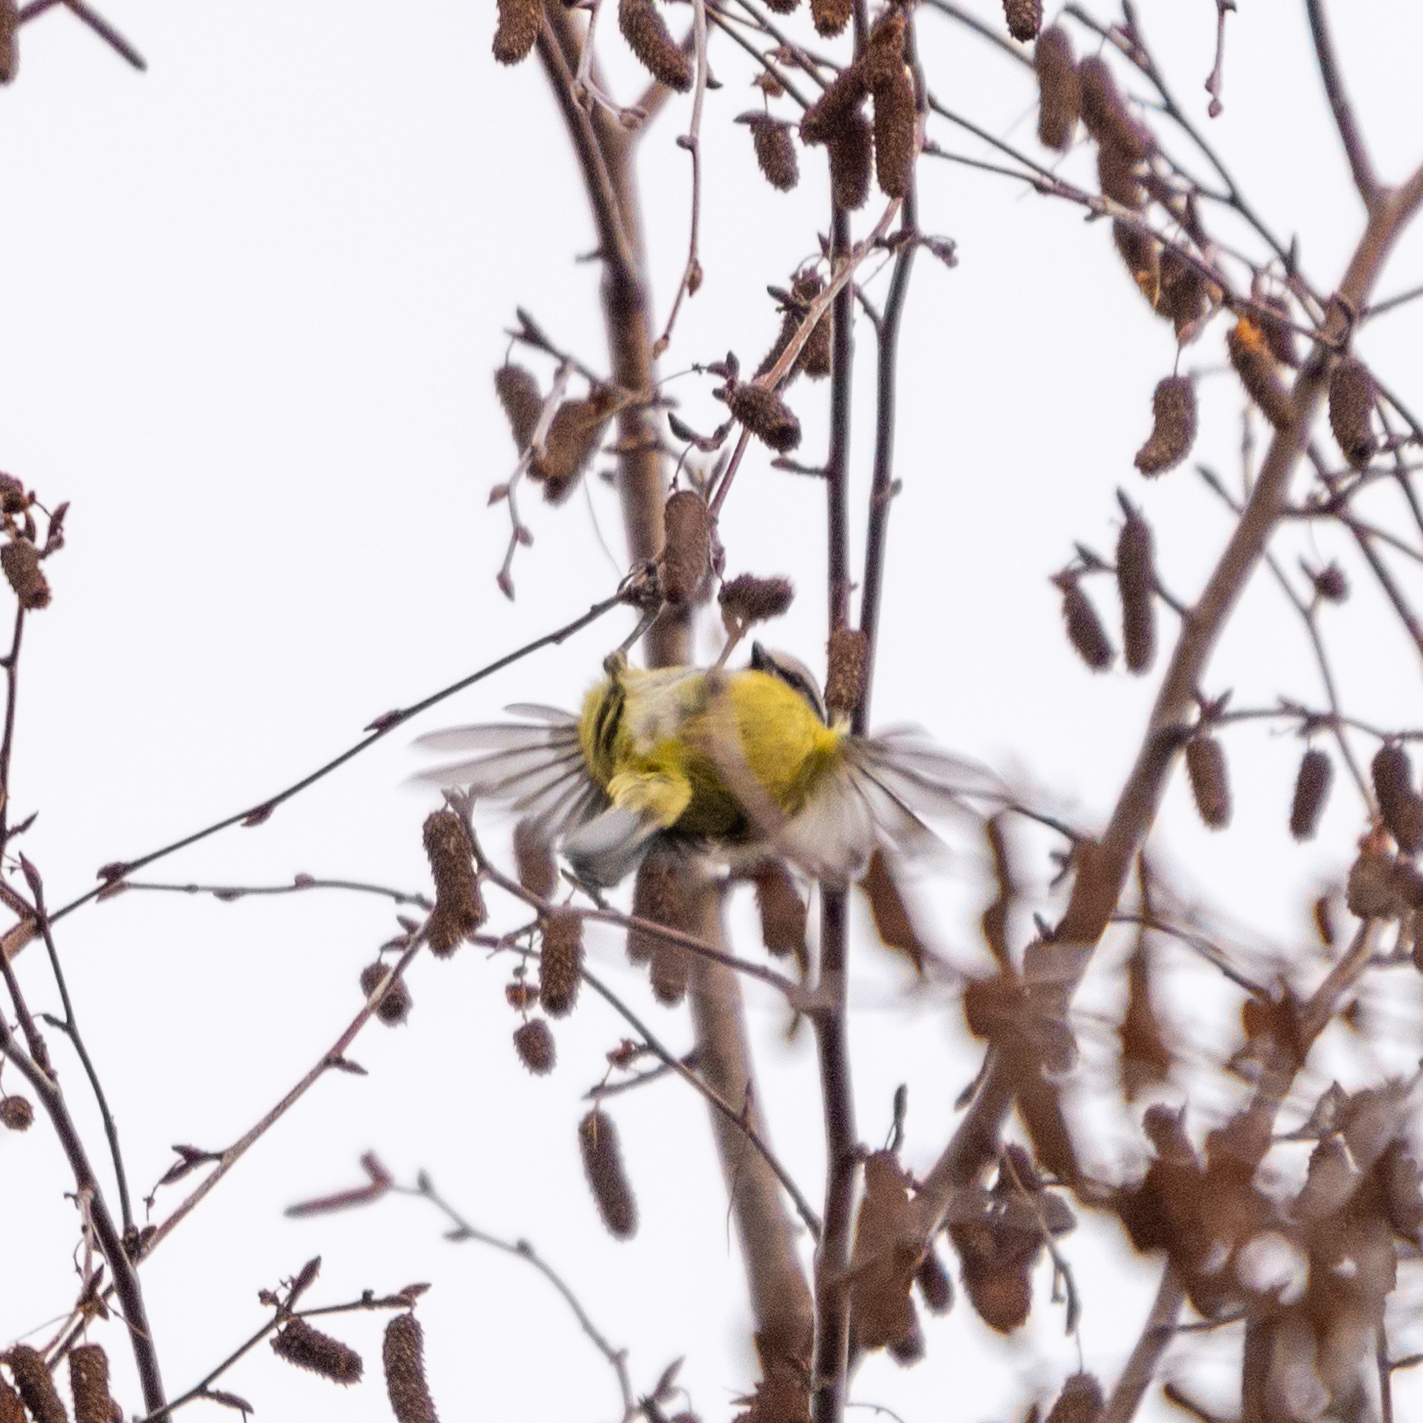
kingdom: Animalia
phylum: Chordata
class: Aves
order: Passeriformes
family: Paridae
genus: Cyanistes
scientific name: Cyanistes caeruleus
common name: Eurasian blue tit
